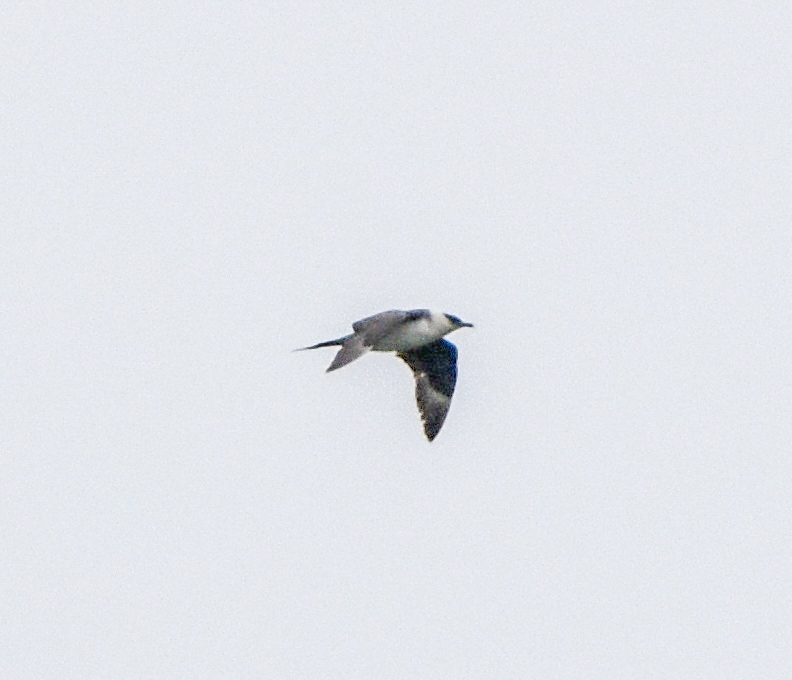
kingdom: Animalia
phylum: Chordata
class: Aves
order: Charadriiformes
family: Stercorariidae
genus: Stercorarius
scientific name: Stercorarius parasiticus
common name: Parasitic jaeger
